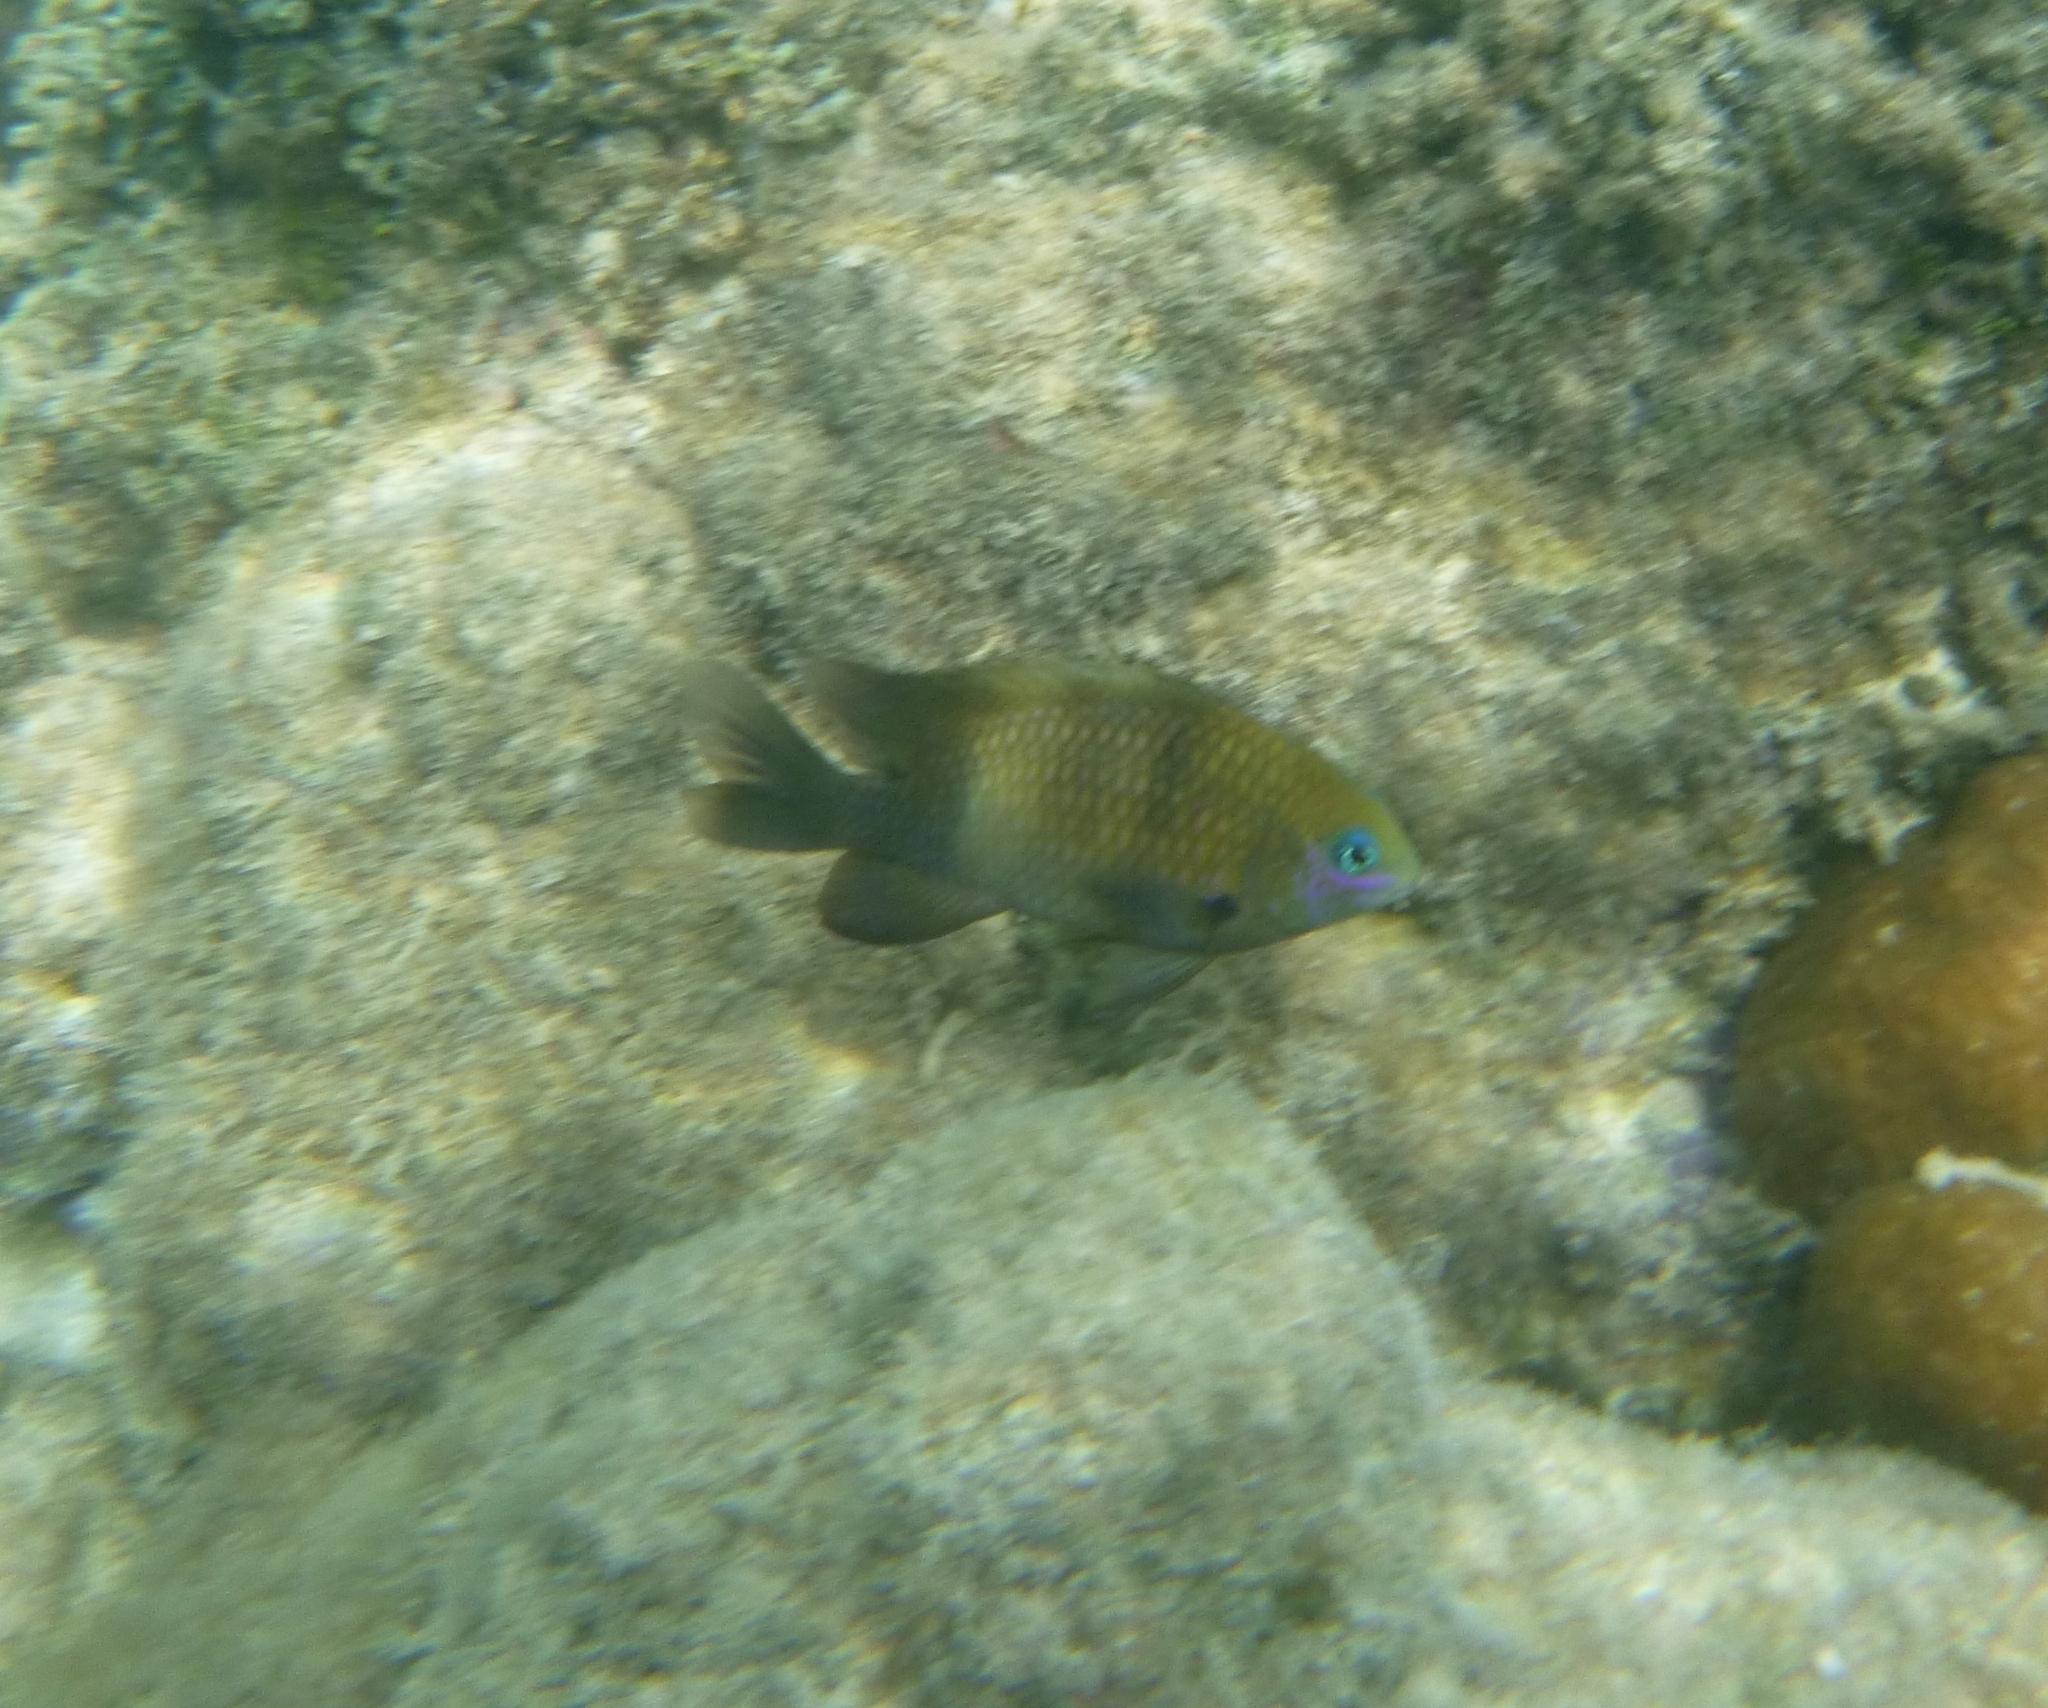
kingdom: Animalia
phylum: Chordata
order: Perciformes
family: Pomacentridae
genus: Stegastes
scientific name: Stegastes nigricans
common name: Dusky gregory
